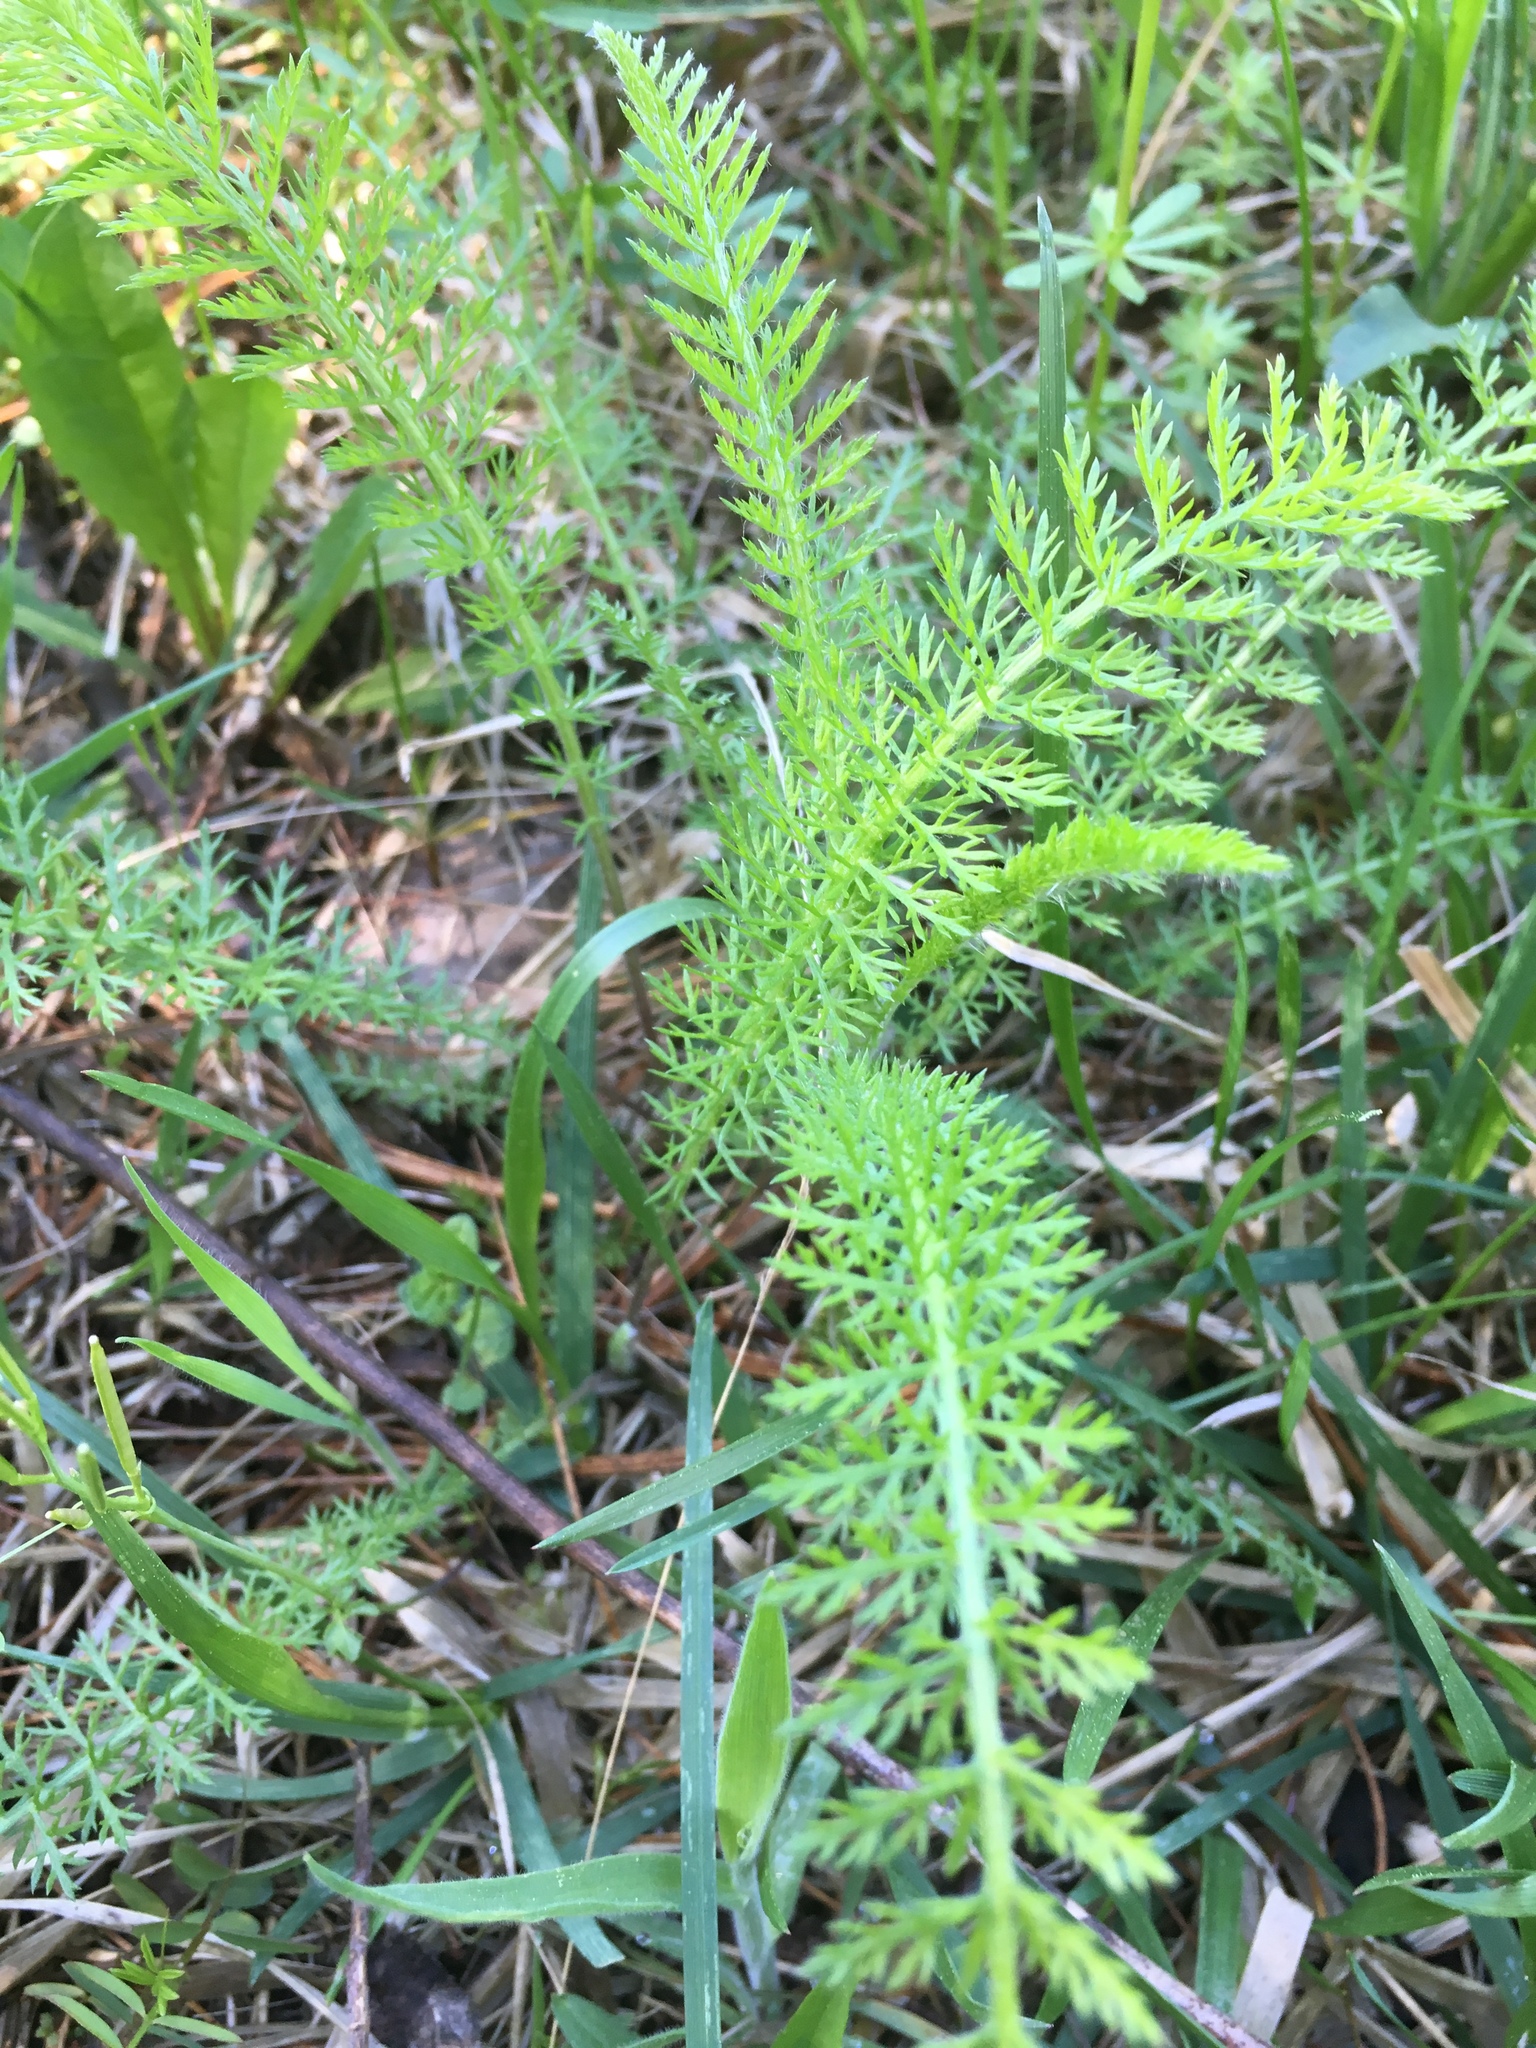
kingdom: Plantae
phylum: Tracheophyta
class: Magnoliopsida
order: Asterales
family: Asteraceae
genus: Achillea
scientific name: Achillea millefolium
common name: Yarrow
